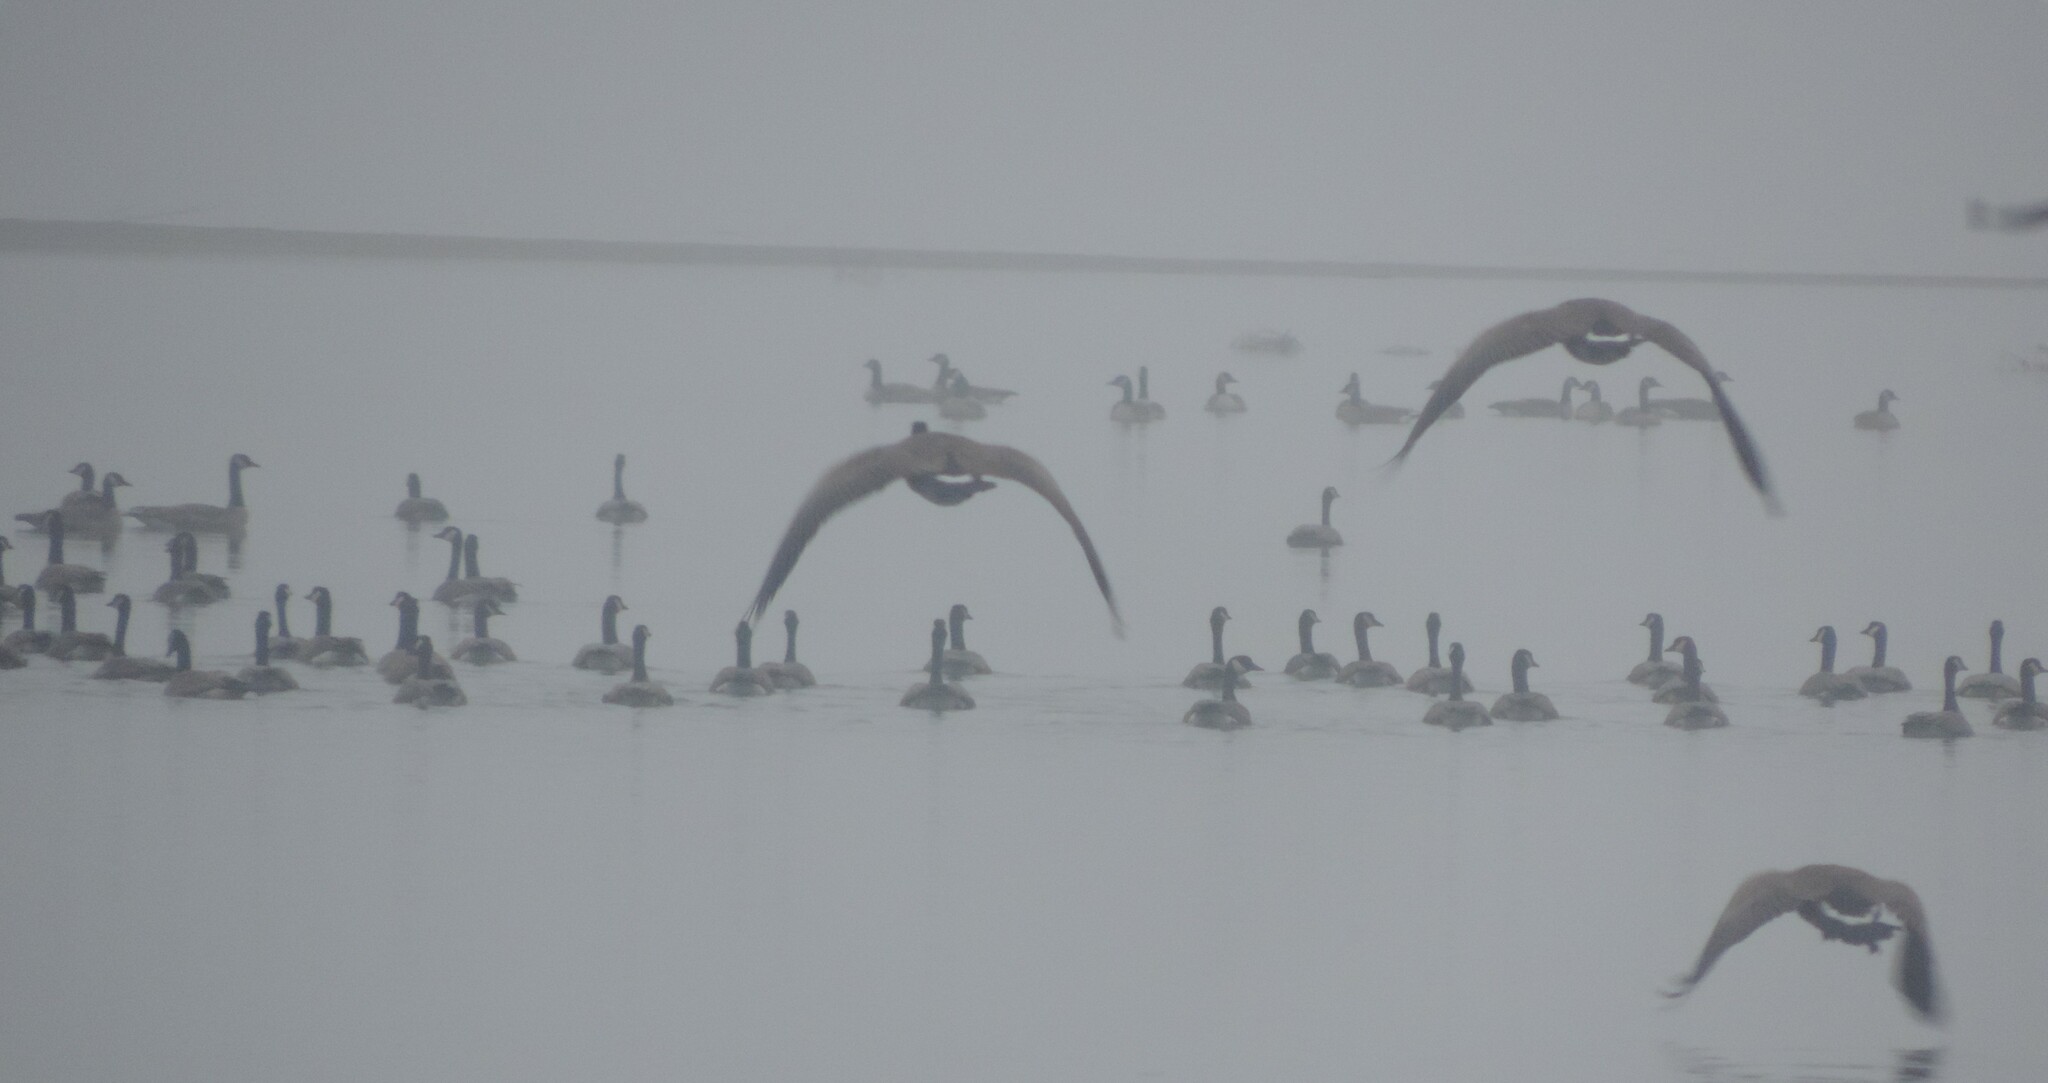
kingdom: Animalia
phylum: Chordata
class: Aves
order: Anseriformes
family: Anatidae
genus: Branta
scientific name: Branta canadensis
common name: Canada goose
